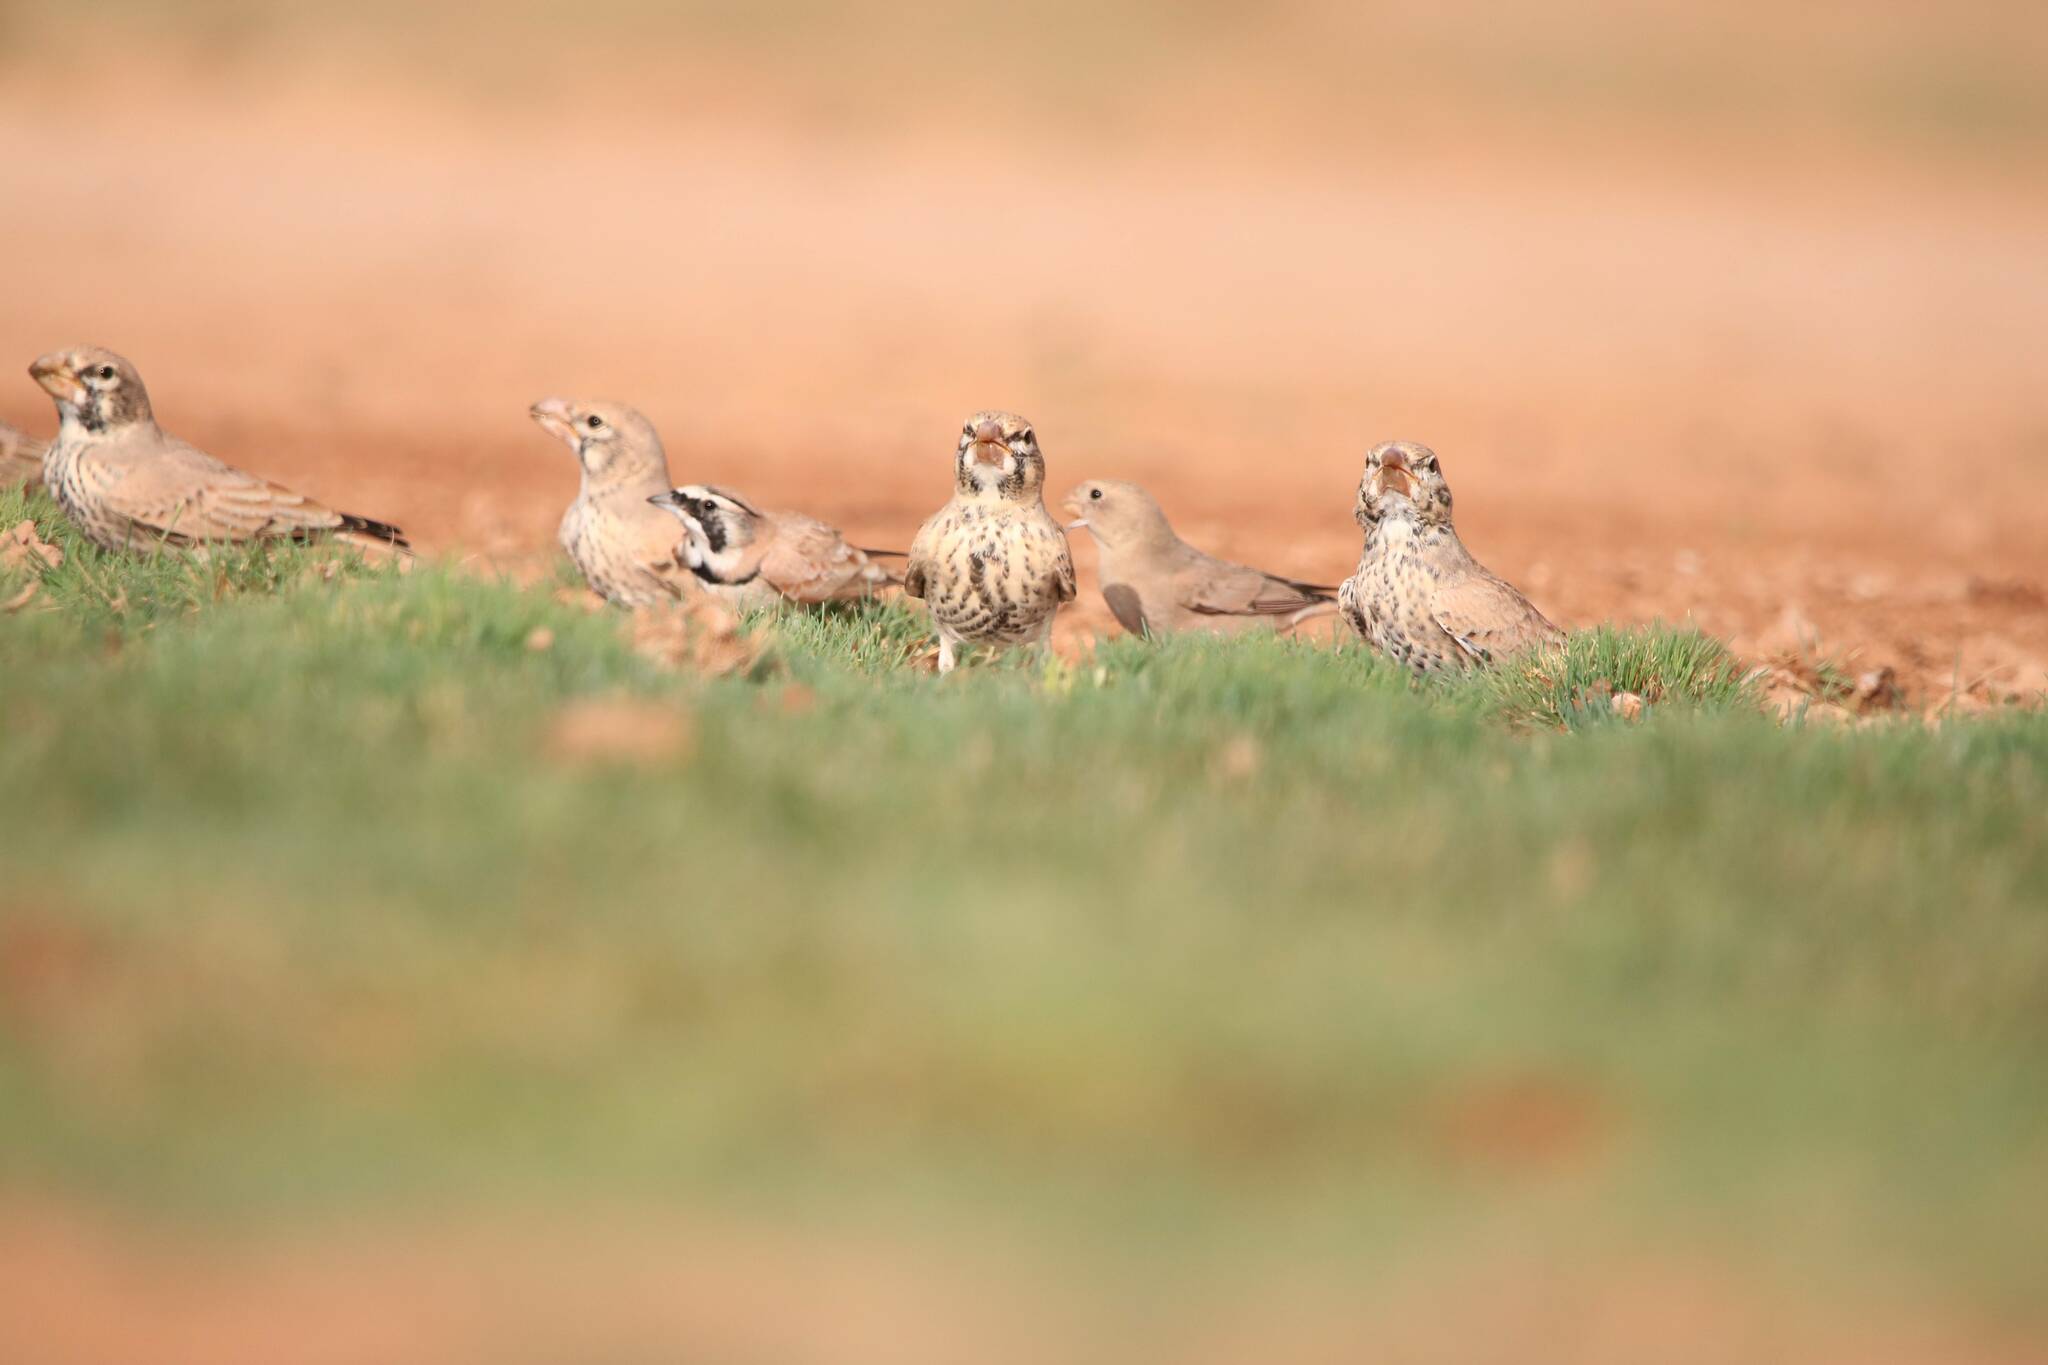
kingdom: Animalia
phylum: Chordata
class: Aves
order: Passeriformes
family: Alaudidae
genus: Ramphocoris
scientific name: Ramphocoris clotbey
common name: Thick-billed lark
